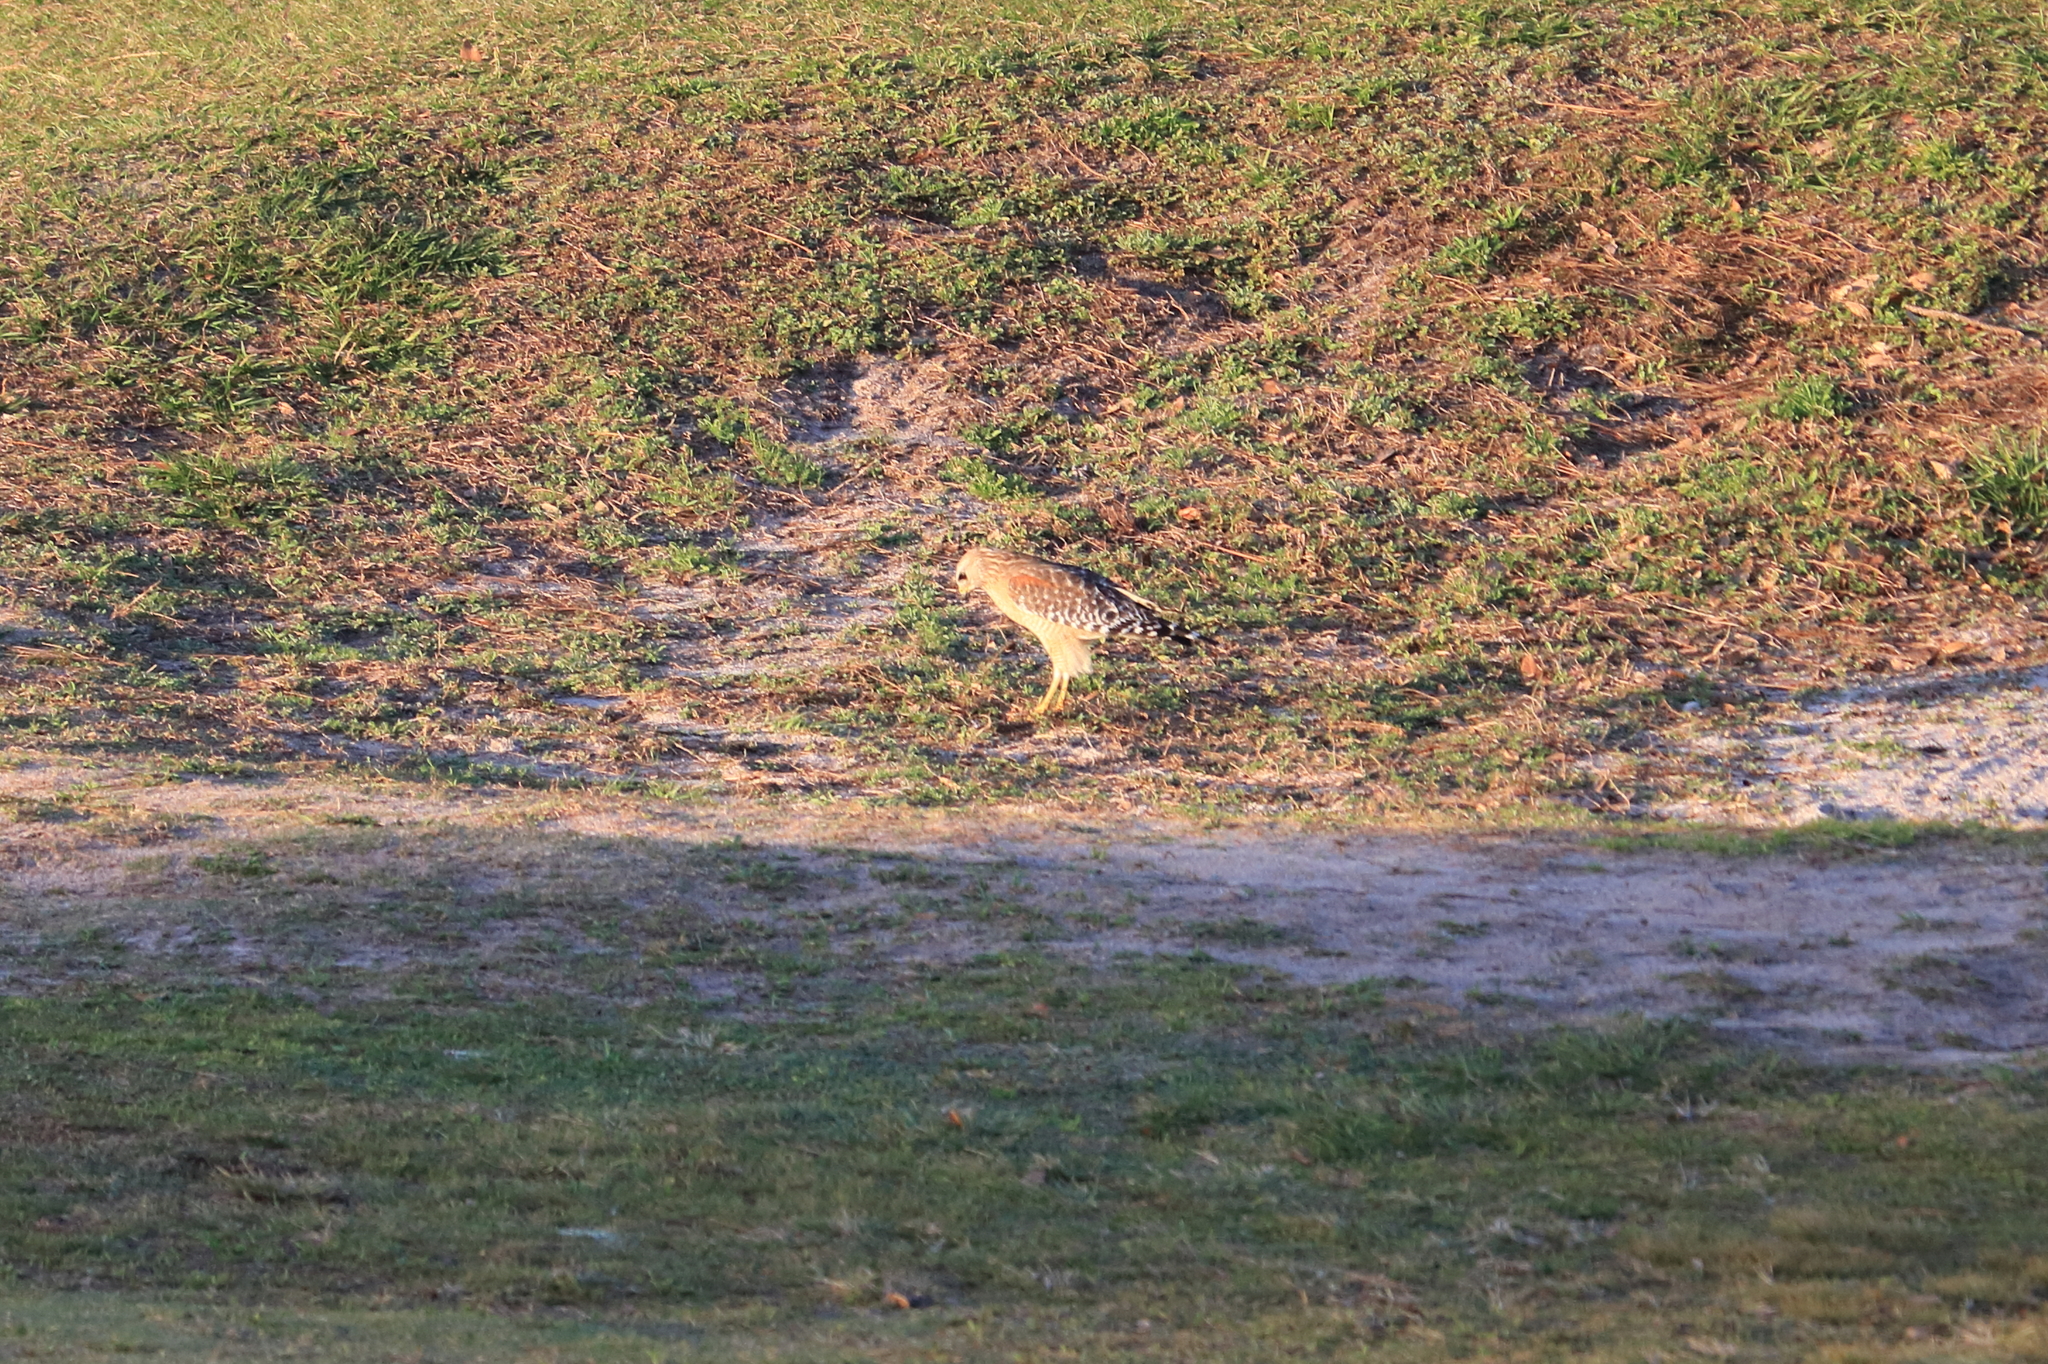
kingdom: Animalia
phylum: Chordata
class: Aves
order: Accipitriformes
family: Accipitridae
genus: Buteo
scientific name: Buteo lineatus
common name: Red-shouldered hawk
